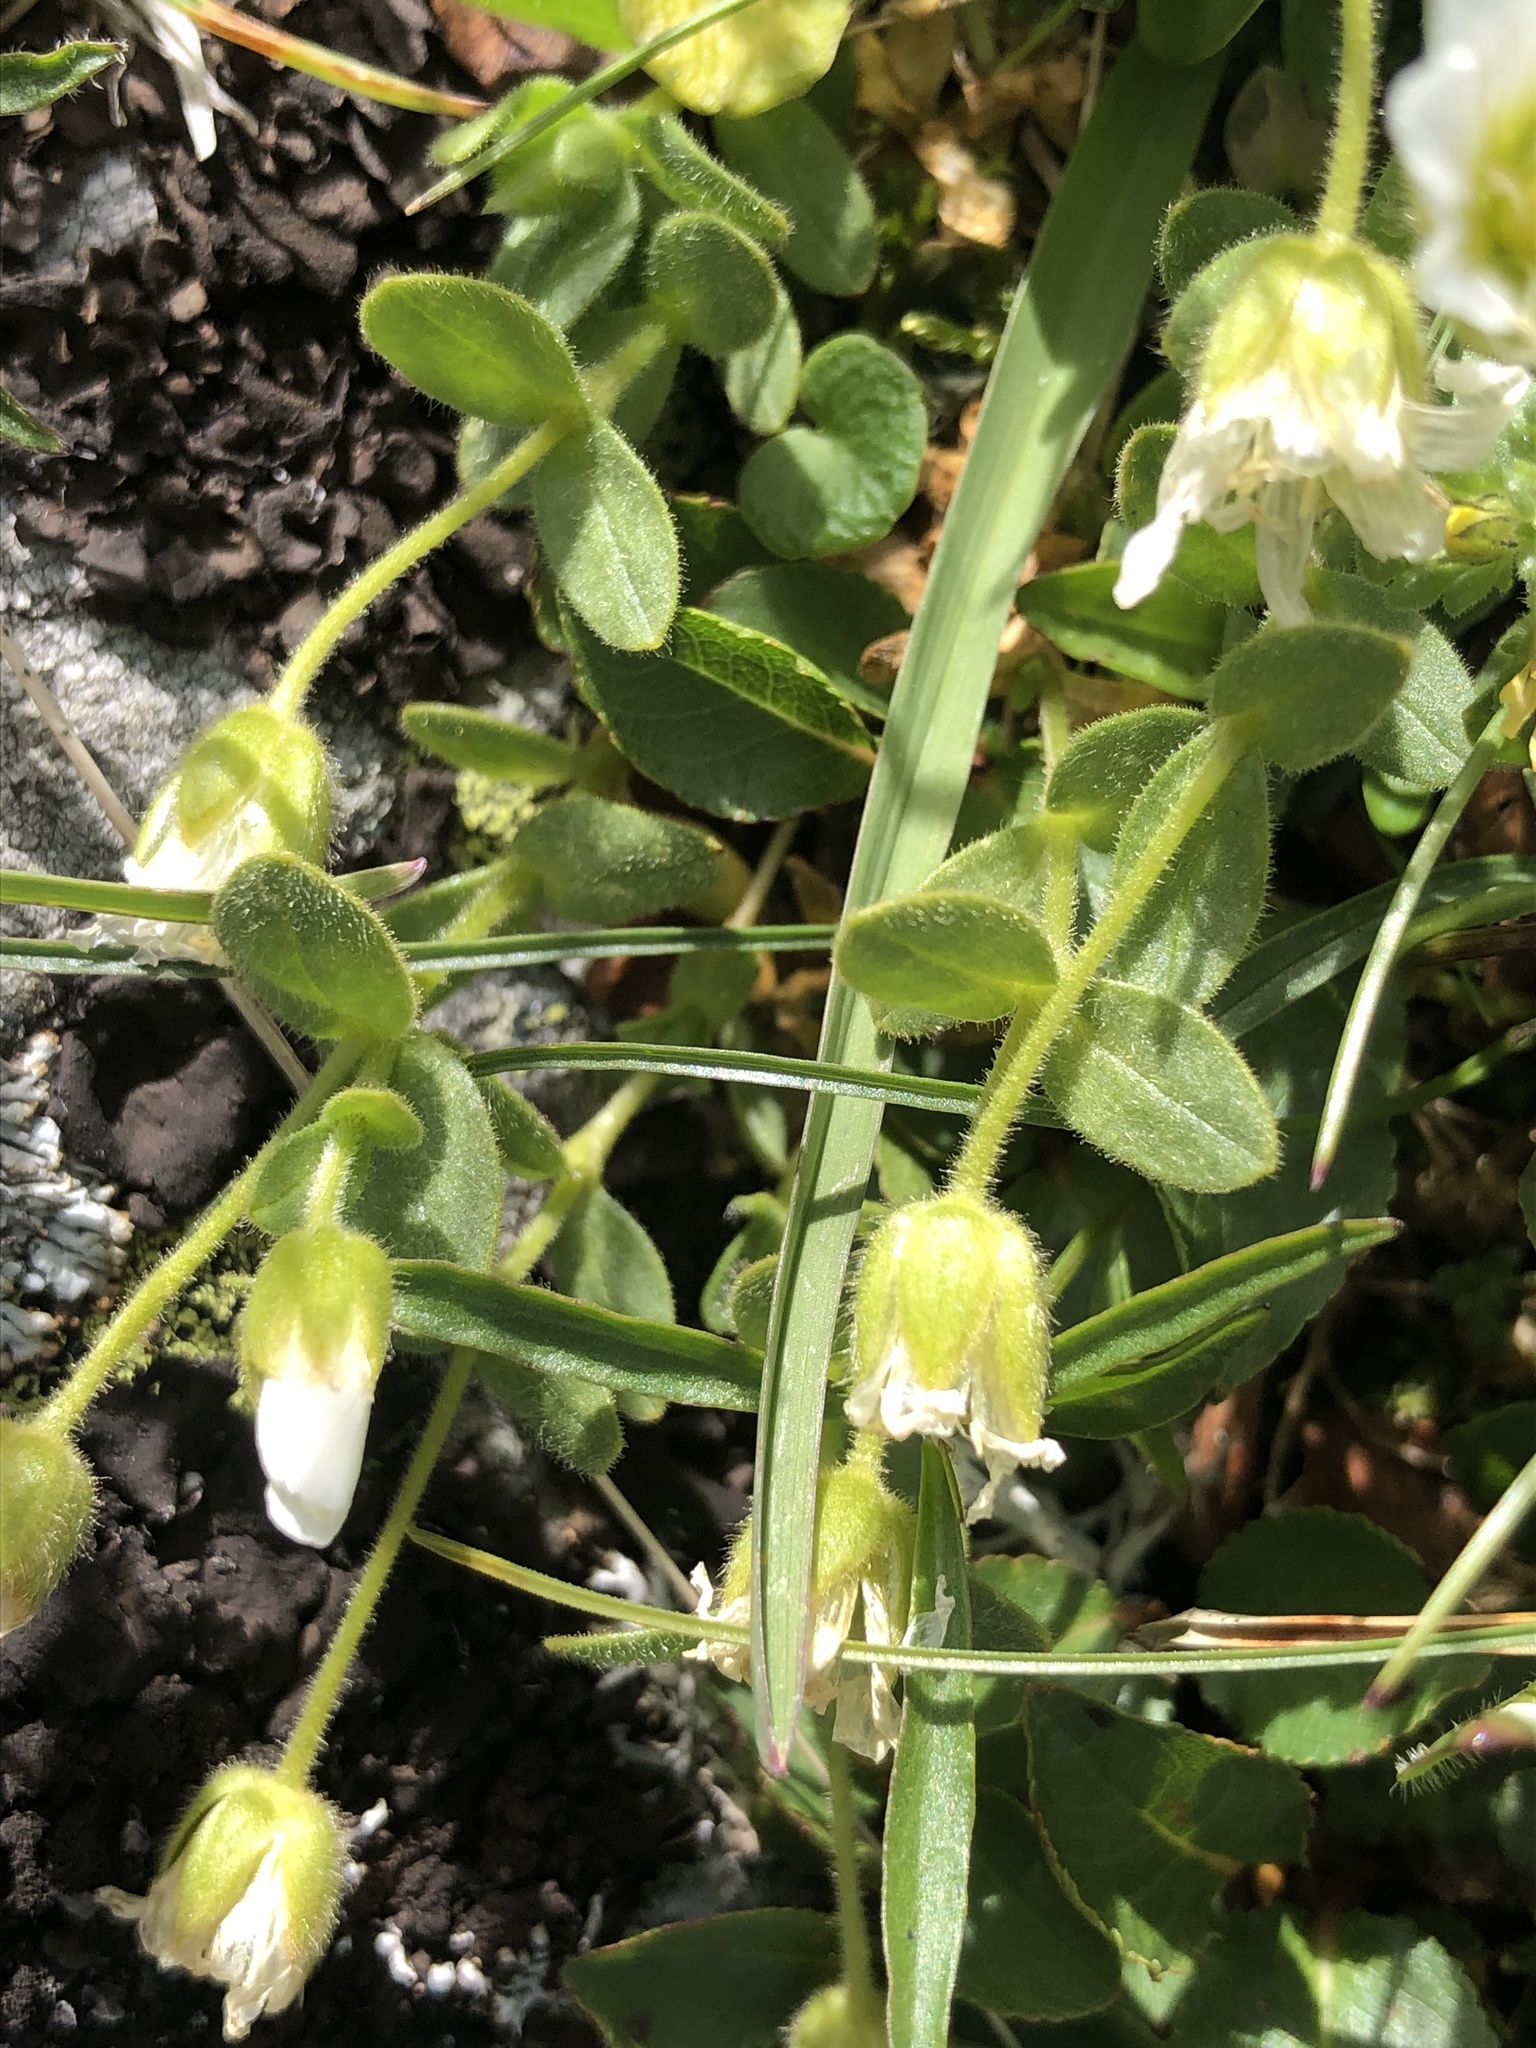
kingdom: Plantae
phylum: Tracheophyta
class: Magnoliopsida
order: Caryophyllales
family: Caryophyllaceae
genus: Cerastium
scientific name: Cerastium uniflorum
